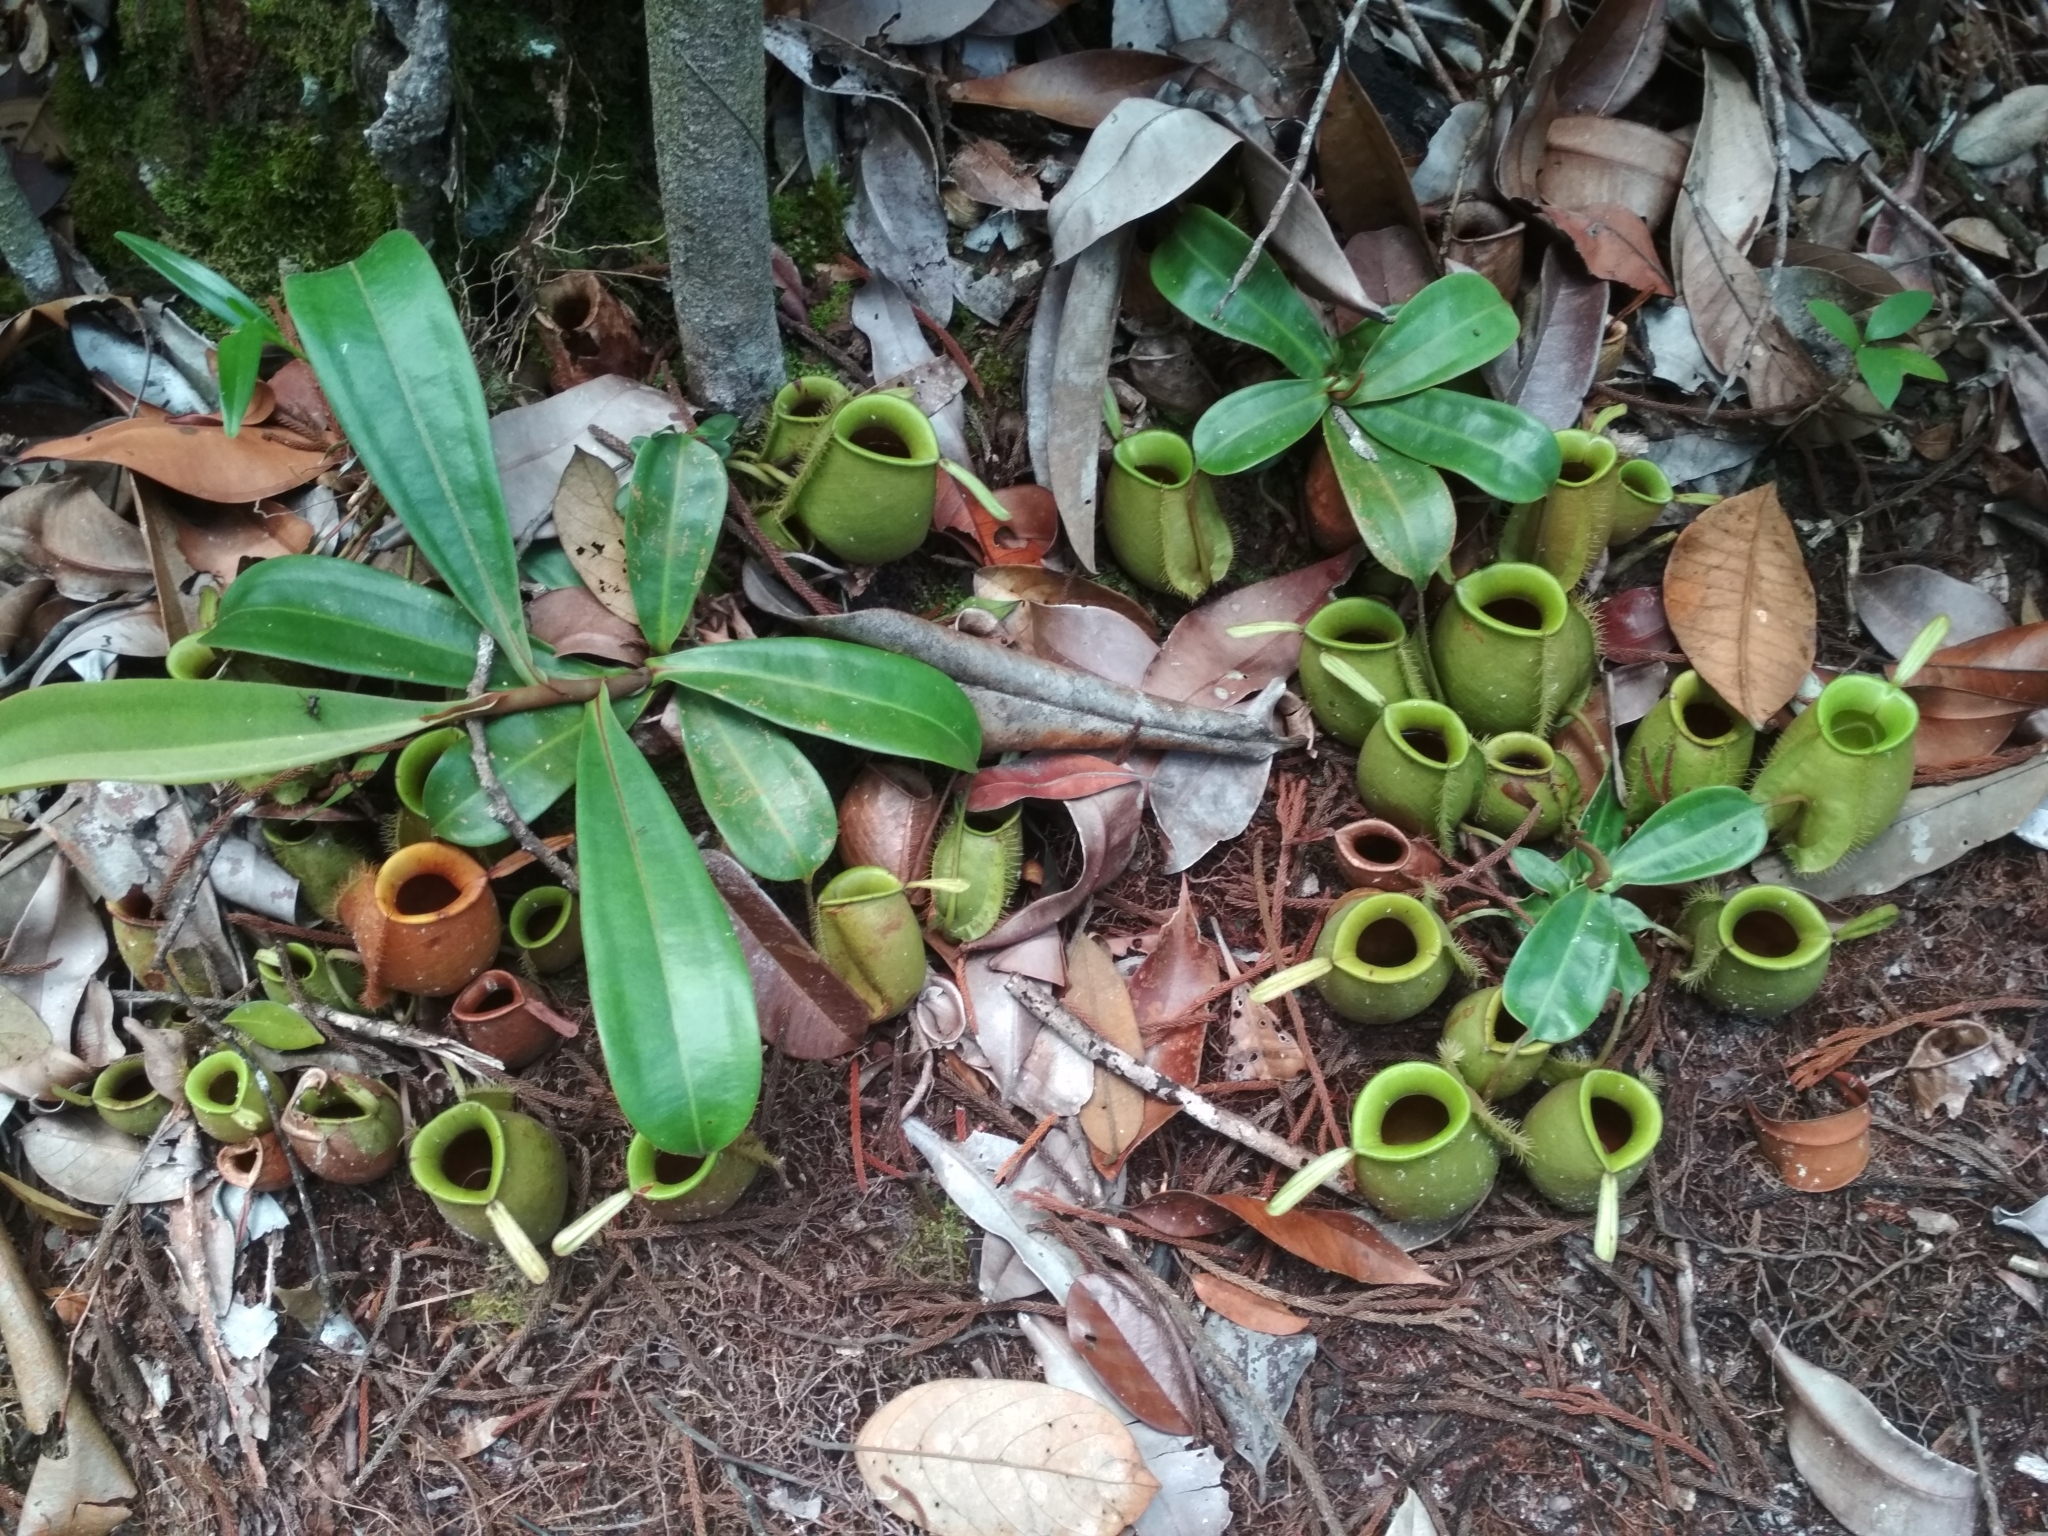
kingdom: Plantae
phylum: Tracheophyta
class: Magnoliopsida
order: Caryophyllales
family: Nepenthaceae
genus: Nepenthes
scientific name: Nepenthes ampullaria
